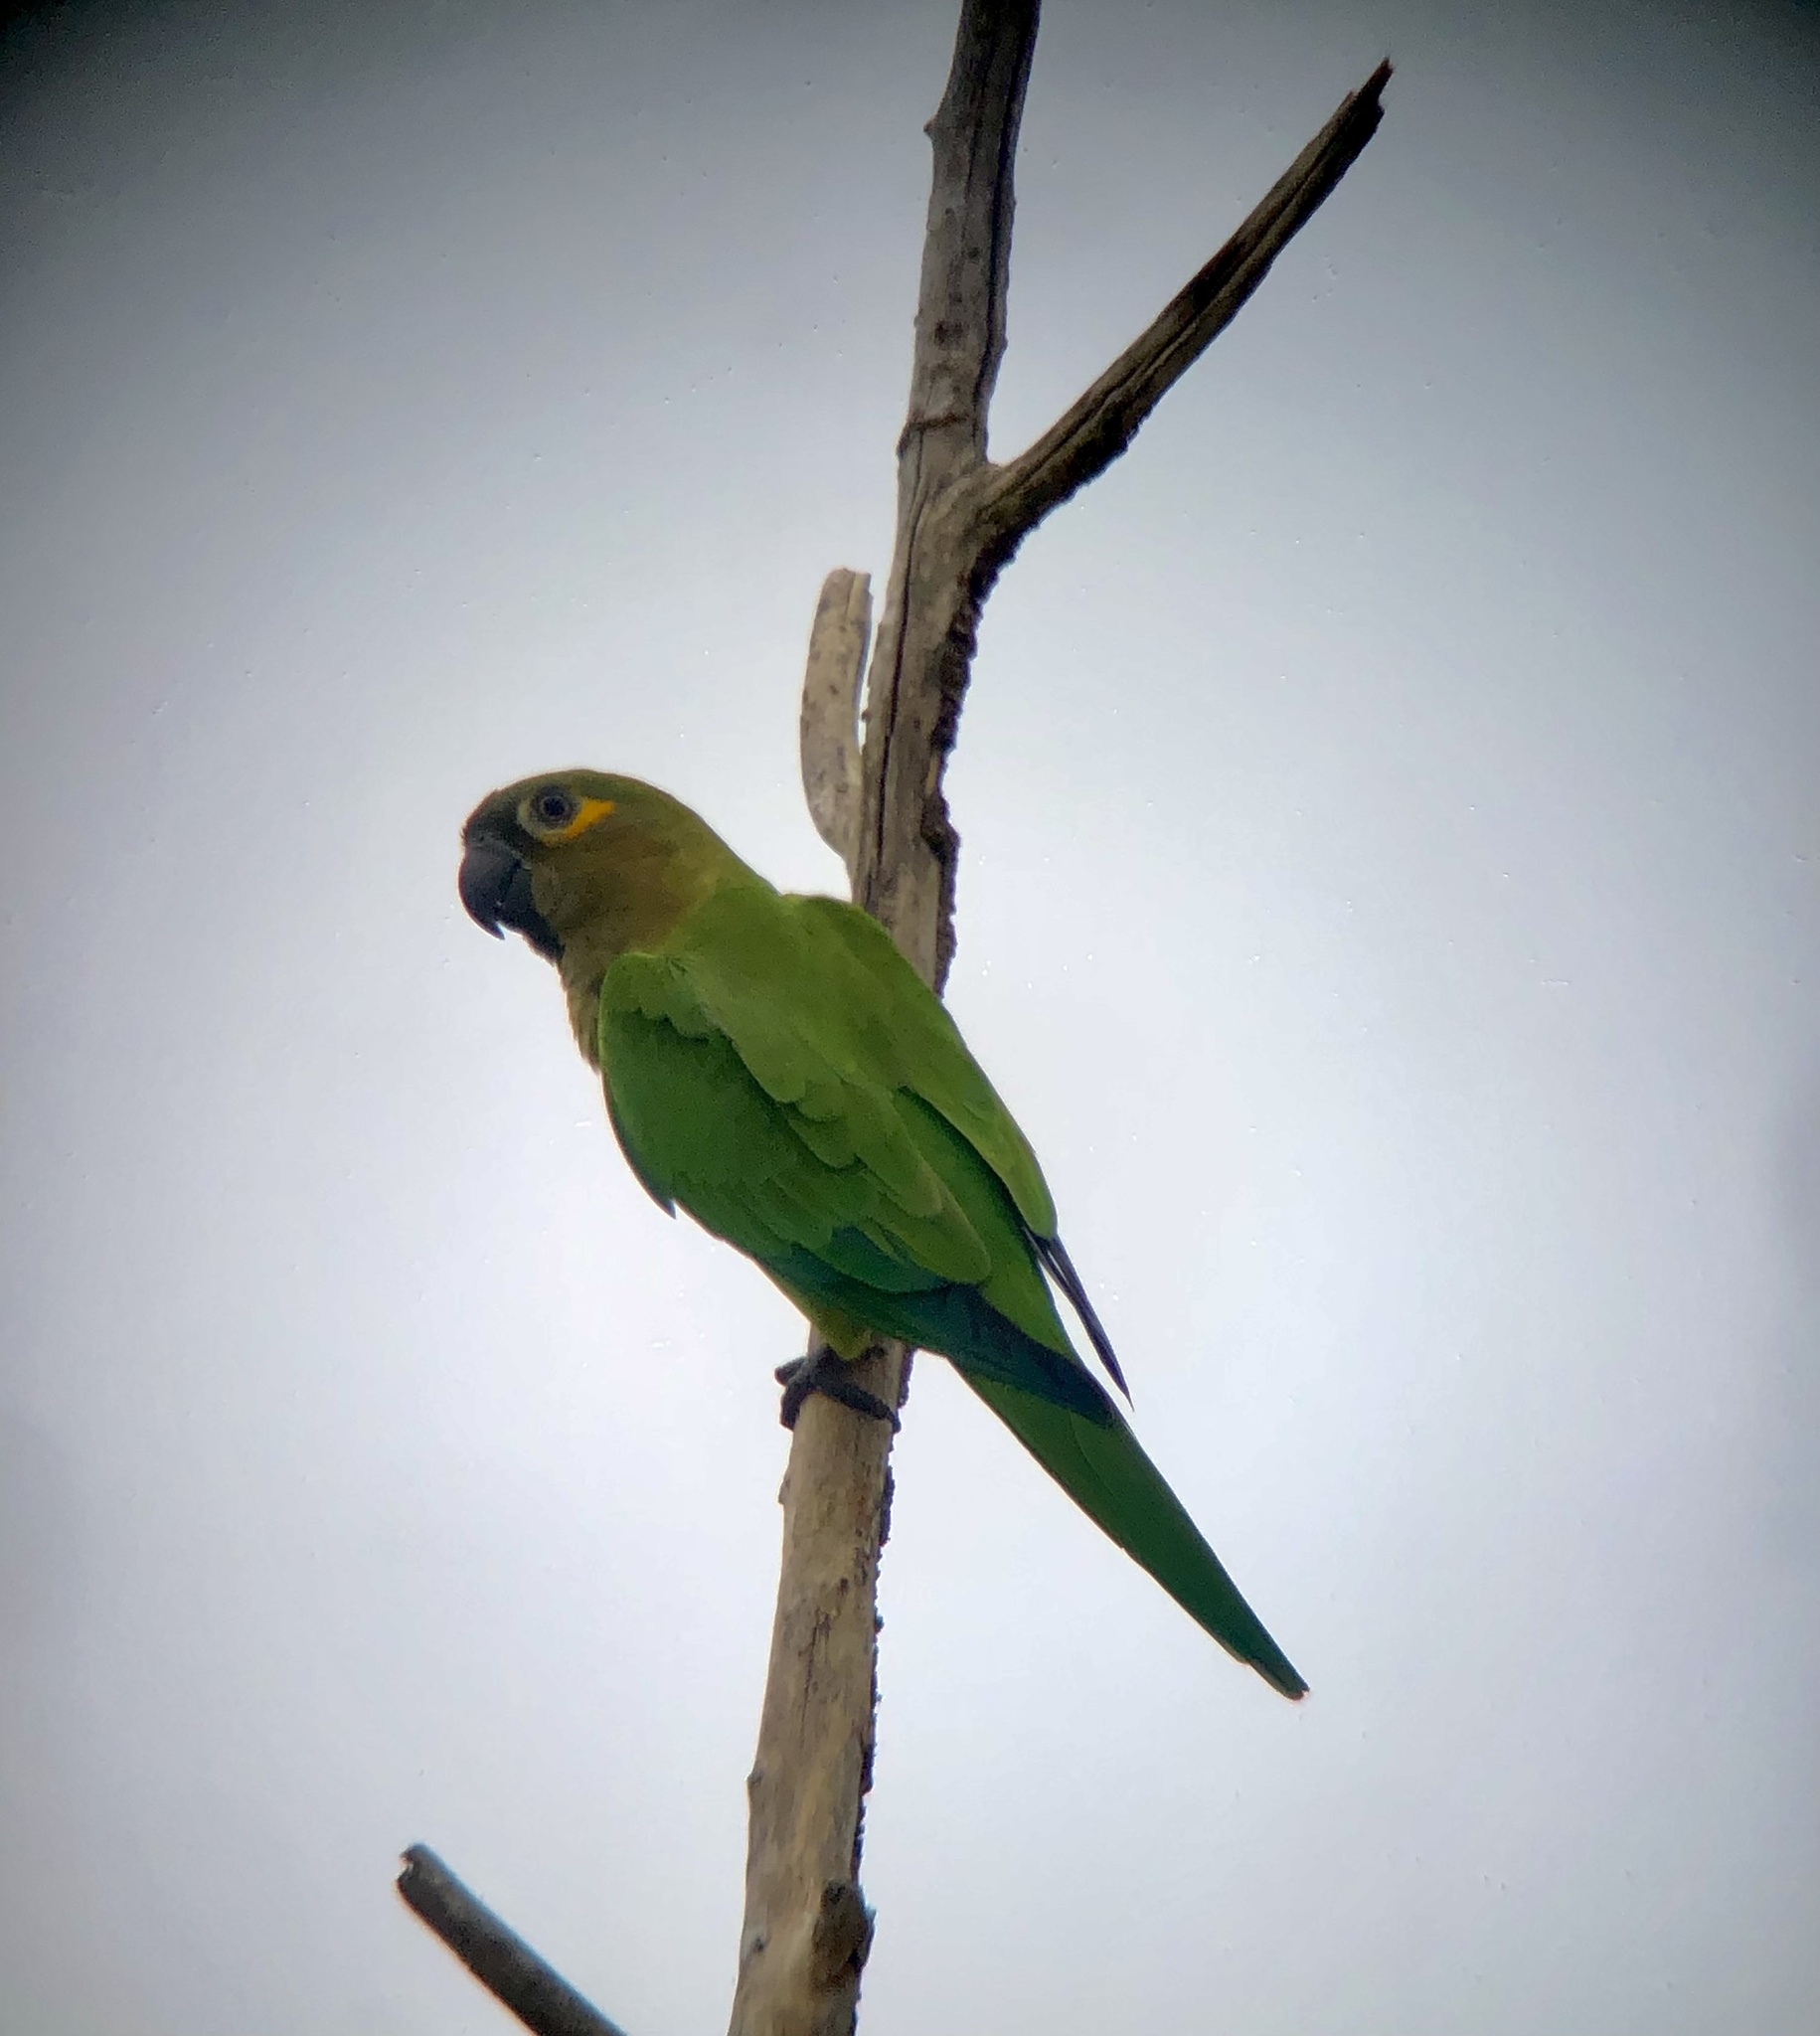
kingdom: Animalia
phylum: Chordata
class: Aves
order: Psittaciformes
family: Psittacidae
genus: Aratinga
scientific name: Aratinga pertinax
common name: Brown-throated parakeet
